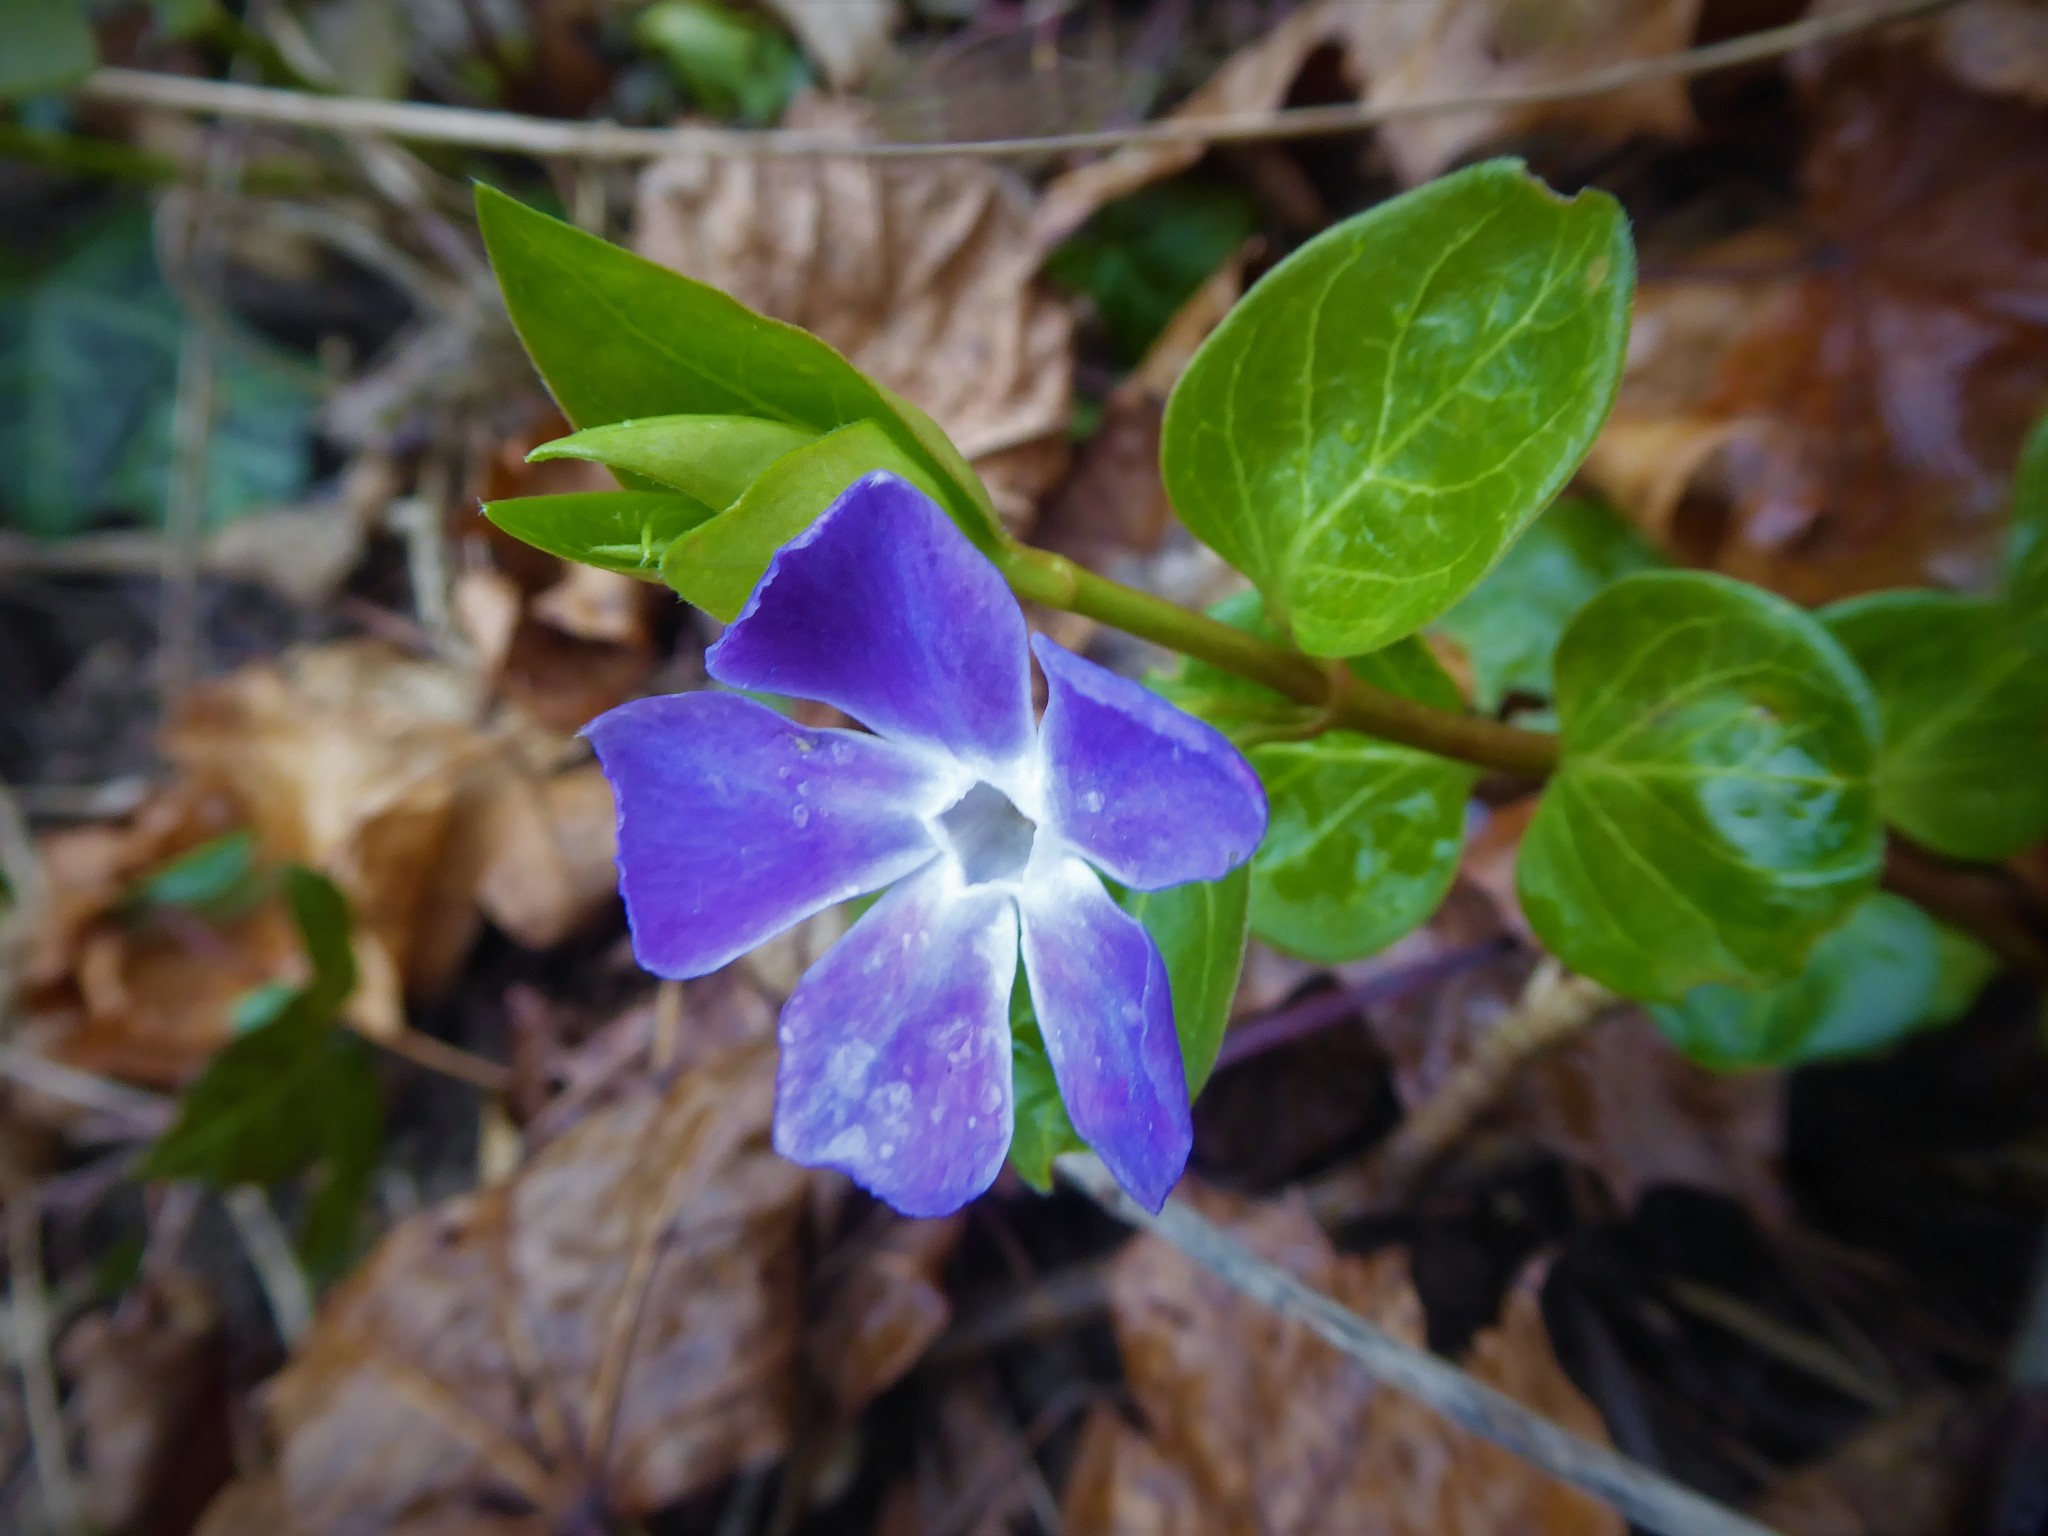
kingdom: Plantae
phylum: Tracheophyta
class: Magnoliopsida
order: Gentianales
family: Apocynaceae
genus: Vinca
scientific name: Vinca major
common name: Greater periwinkle
